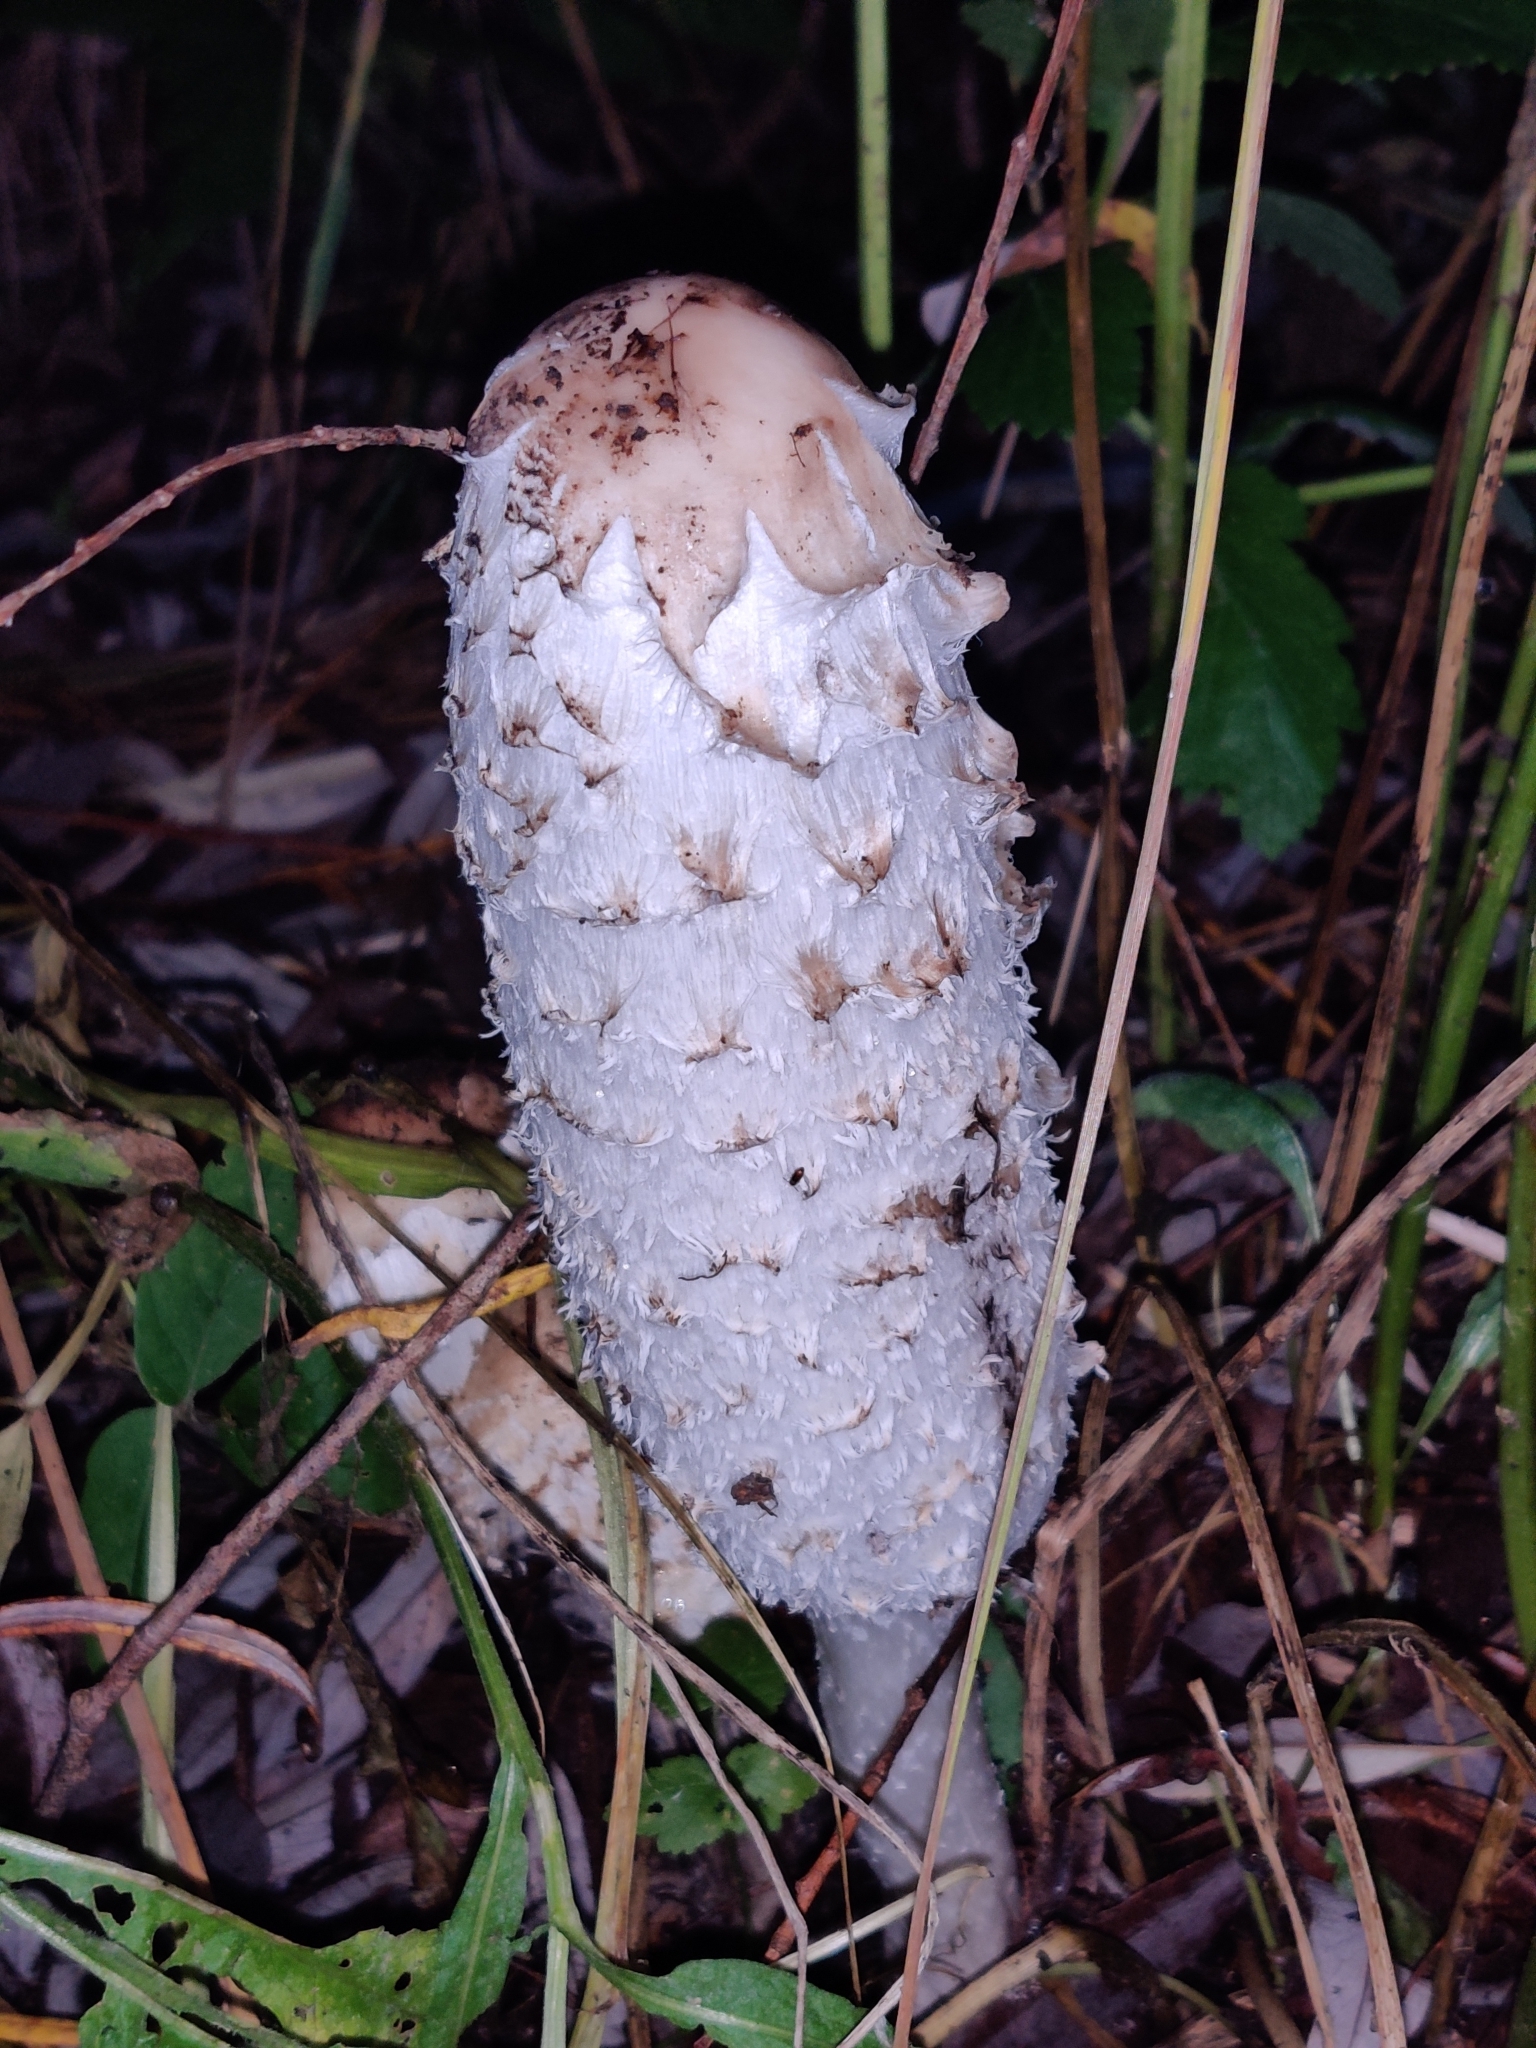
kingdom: Fungi
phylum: Basidiomycota
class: Agaricomycetes
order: Agaricales
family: Agaricaceae
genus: Coprinus
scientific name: Coprinus comatus
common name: Lawyer's wig
